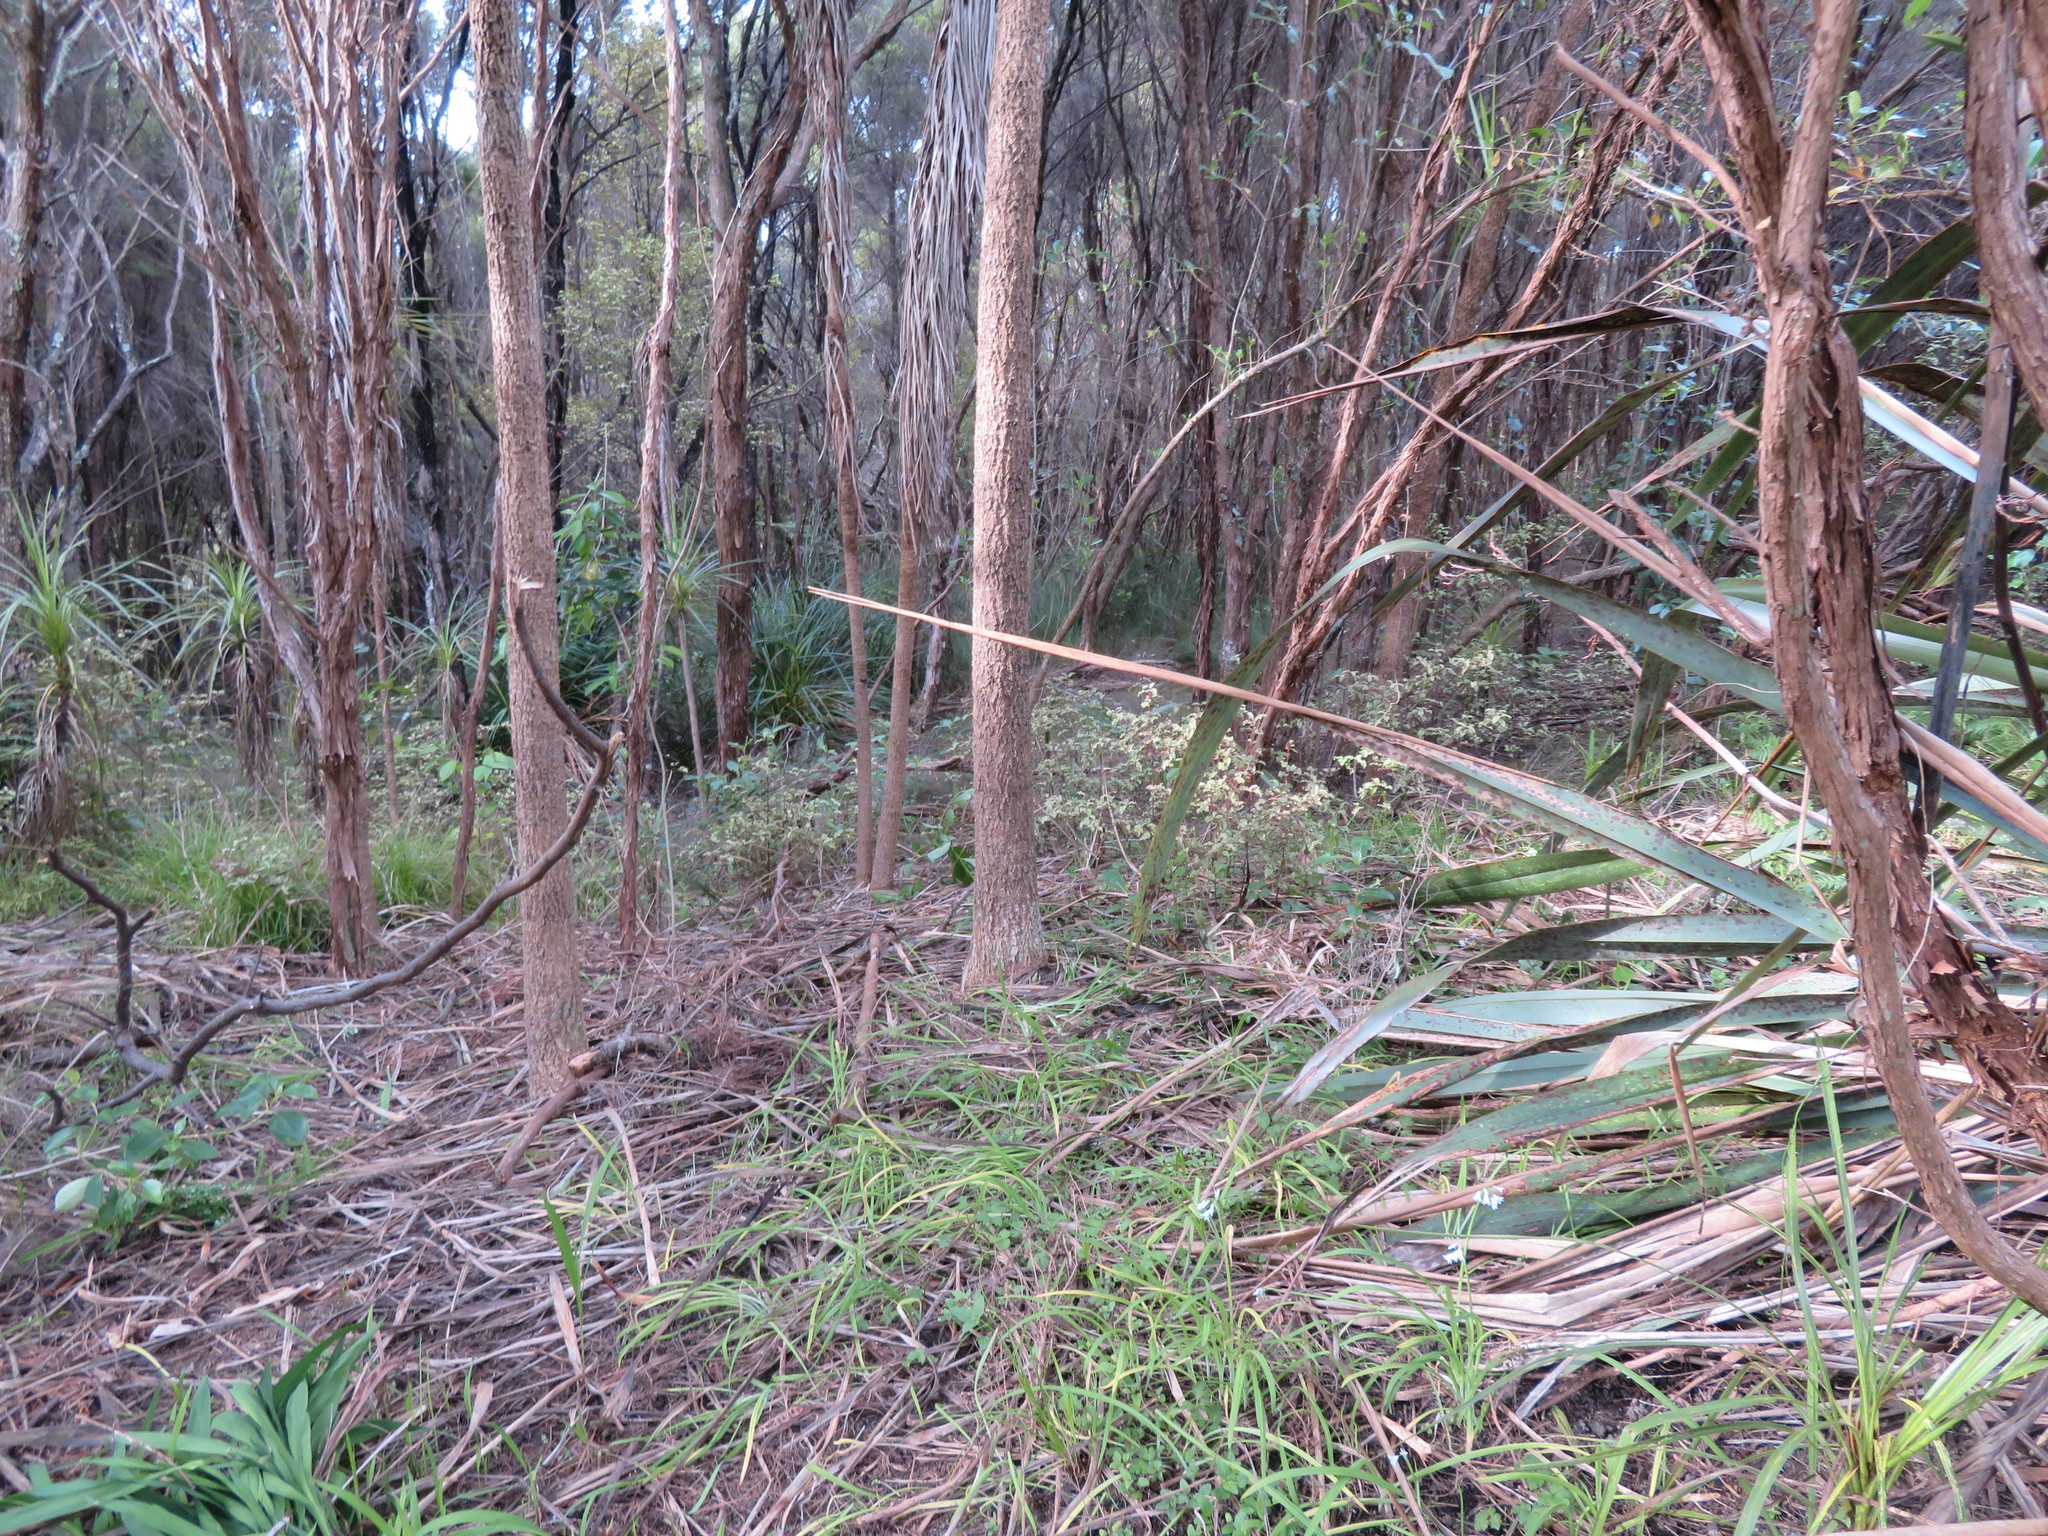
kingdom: Plantae
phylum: Tracheophyta
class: Magnoliopsida
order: Ericales
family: Primulaceae
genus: Myrsine
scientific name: Myrsine australis
